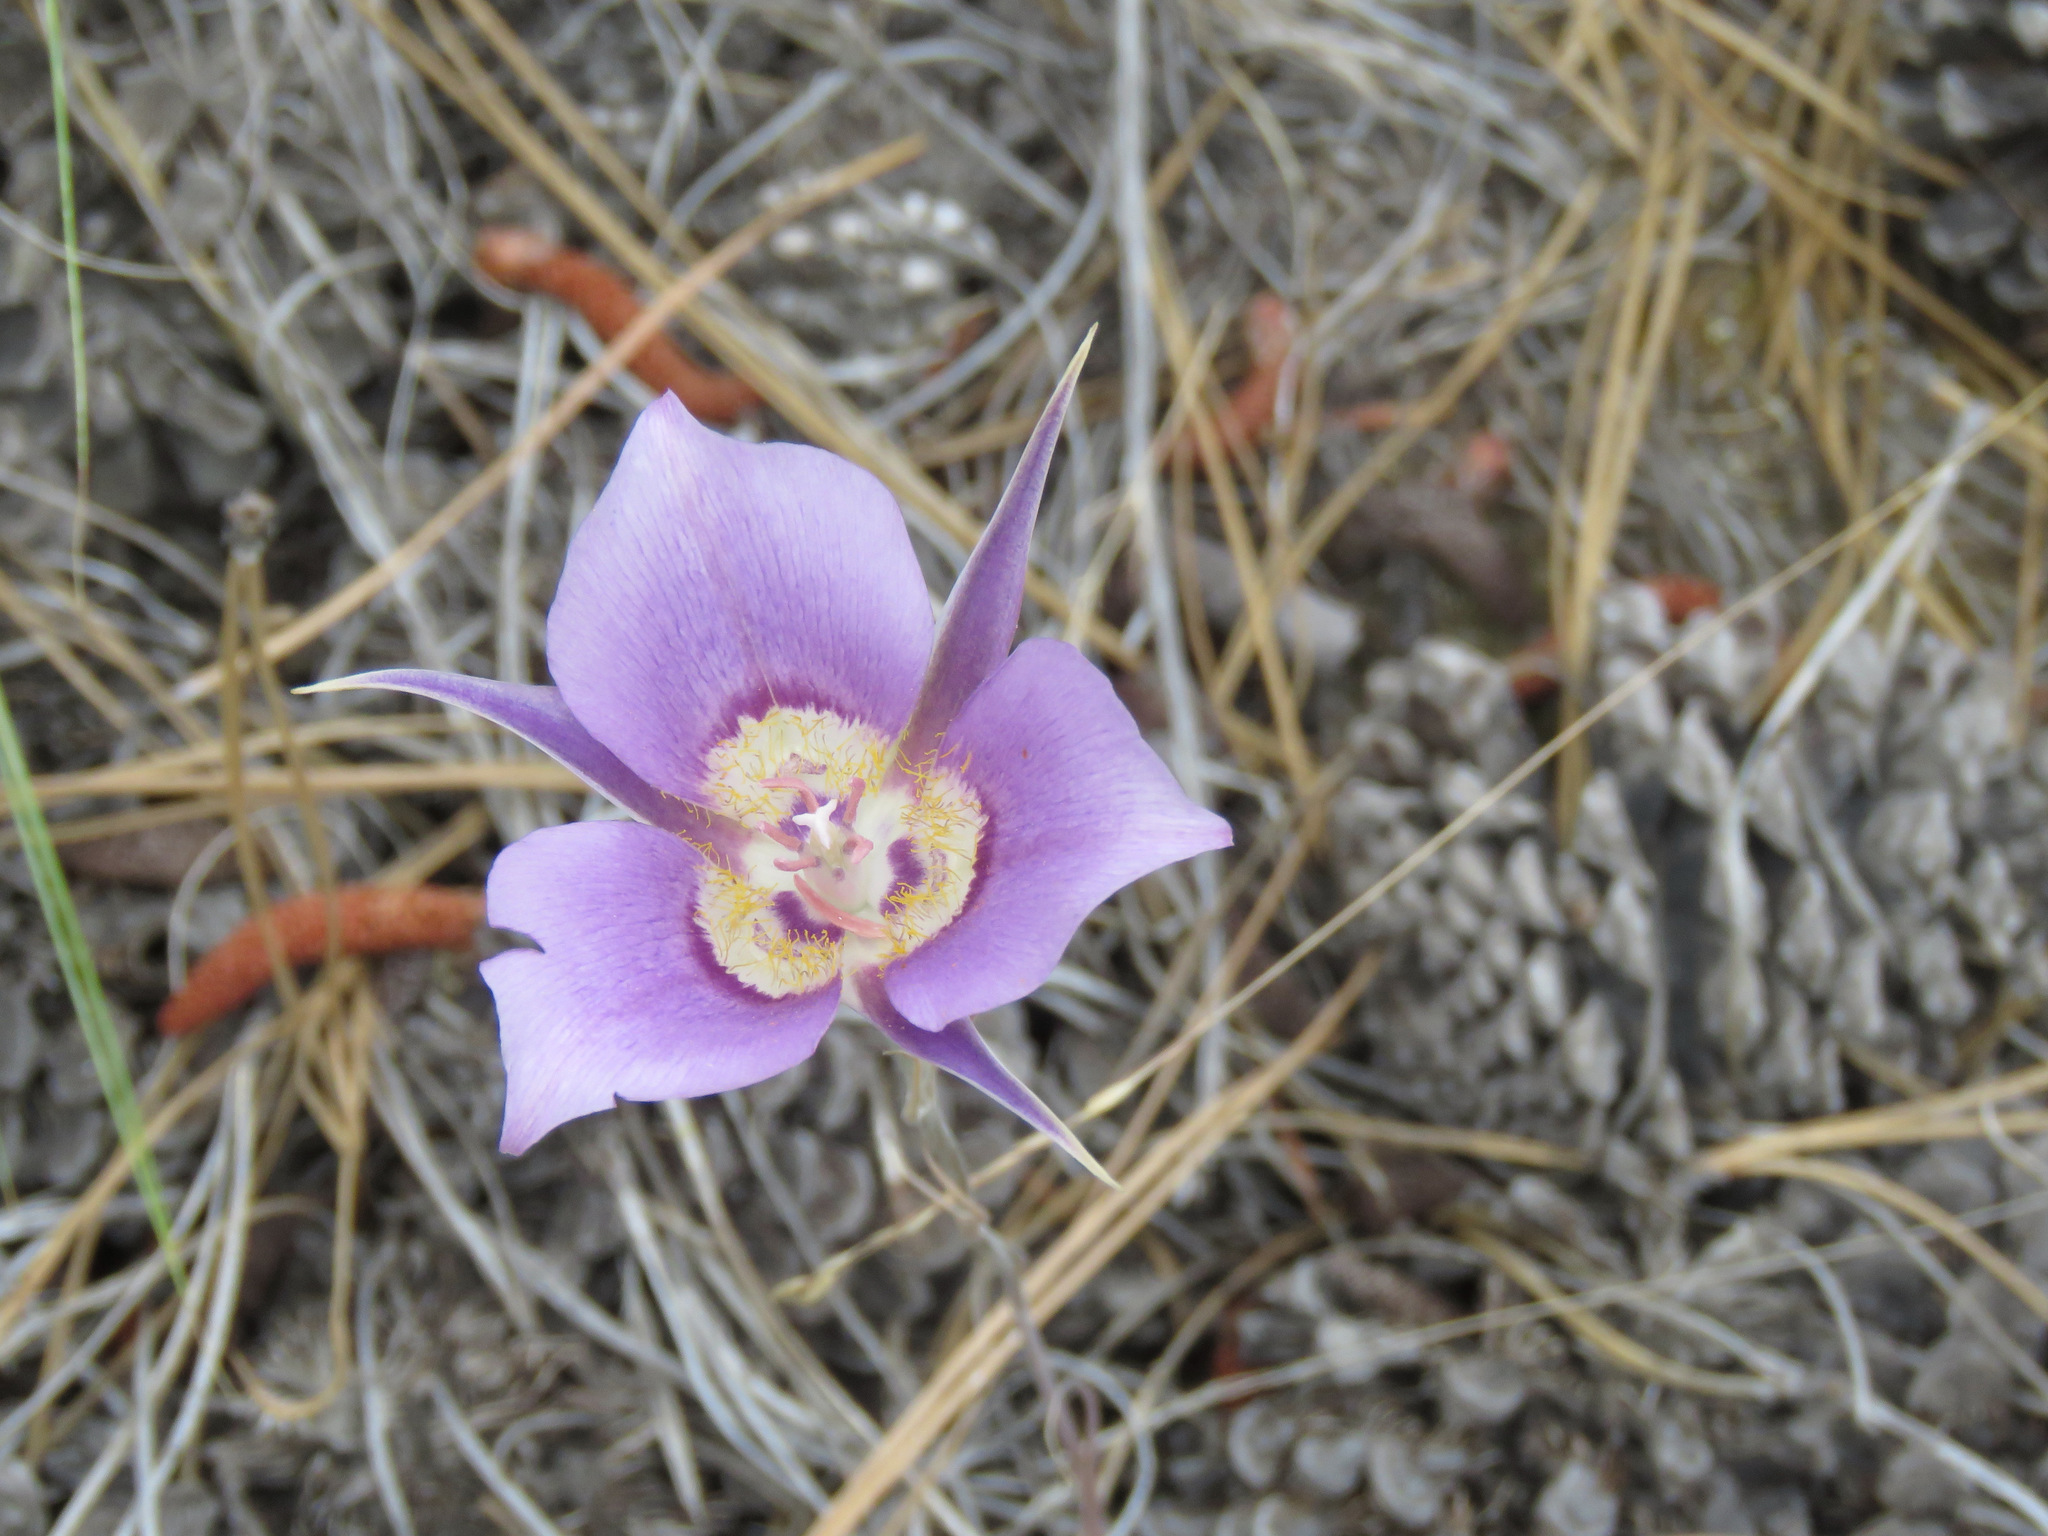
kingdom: Plantae
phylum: Tracheophyta
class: Liliopsida
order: Liliales
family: Liliaceae
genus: Calochortus
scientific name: Calochortus macrocarpus
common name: Green-band mariposa lily
